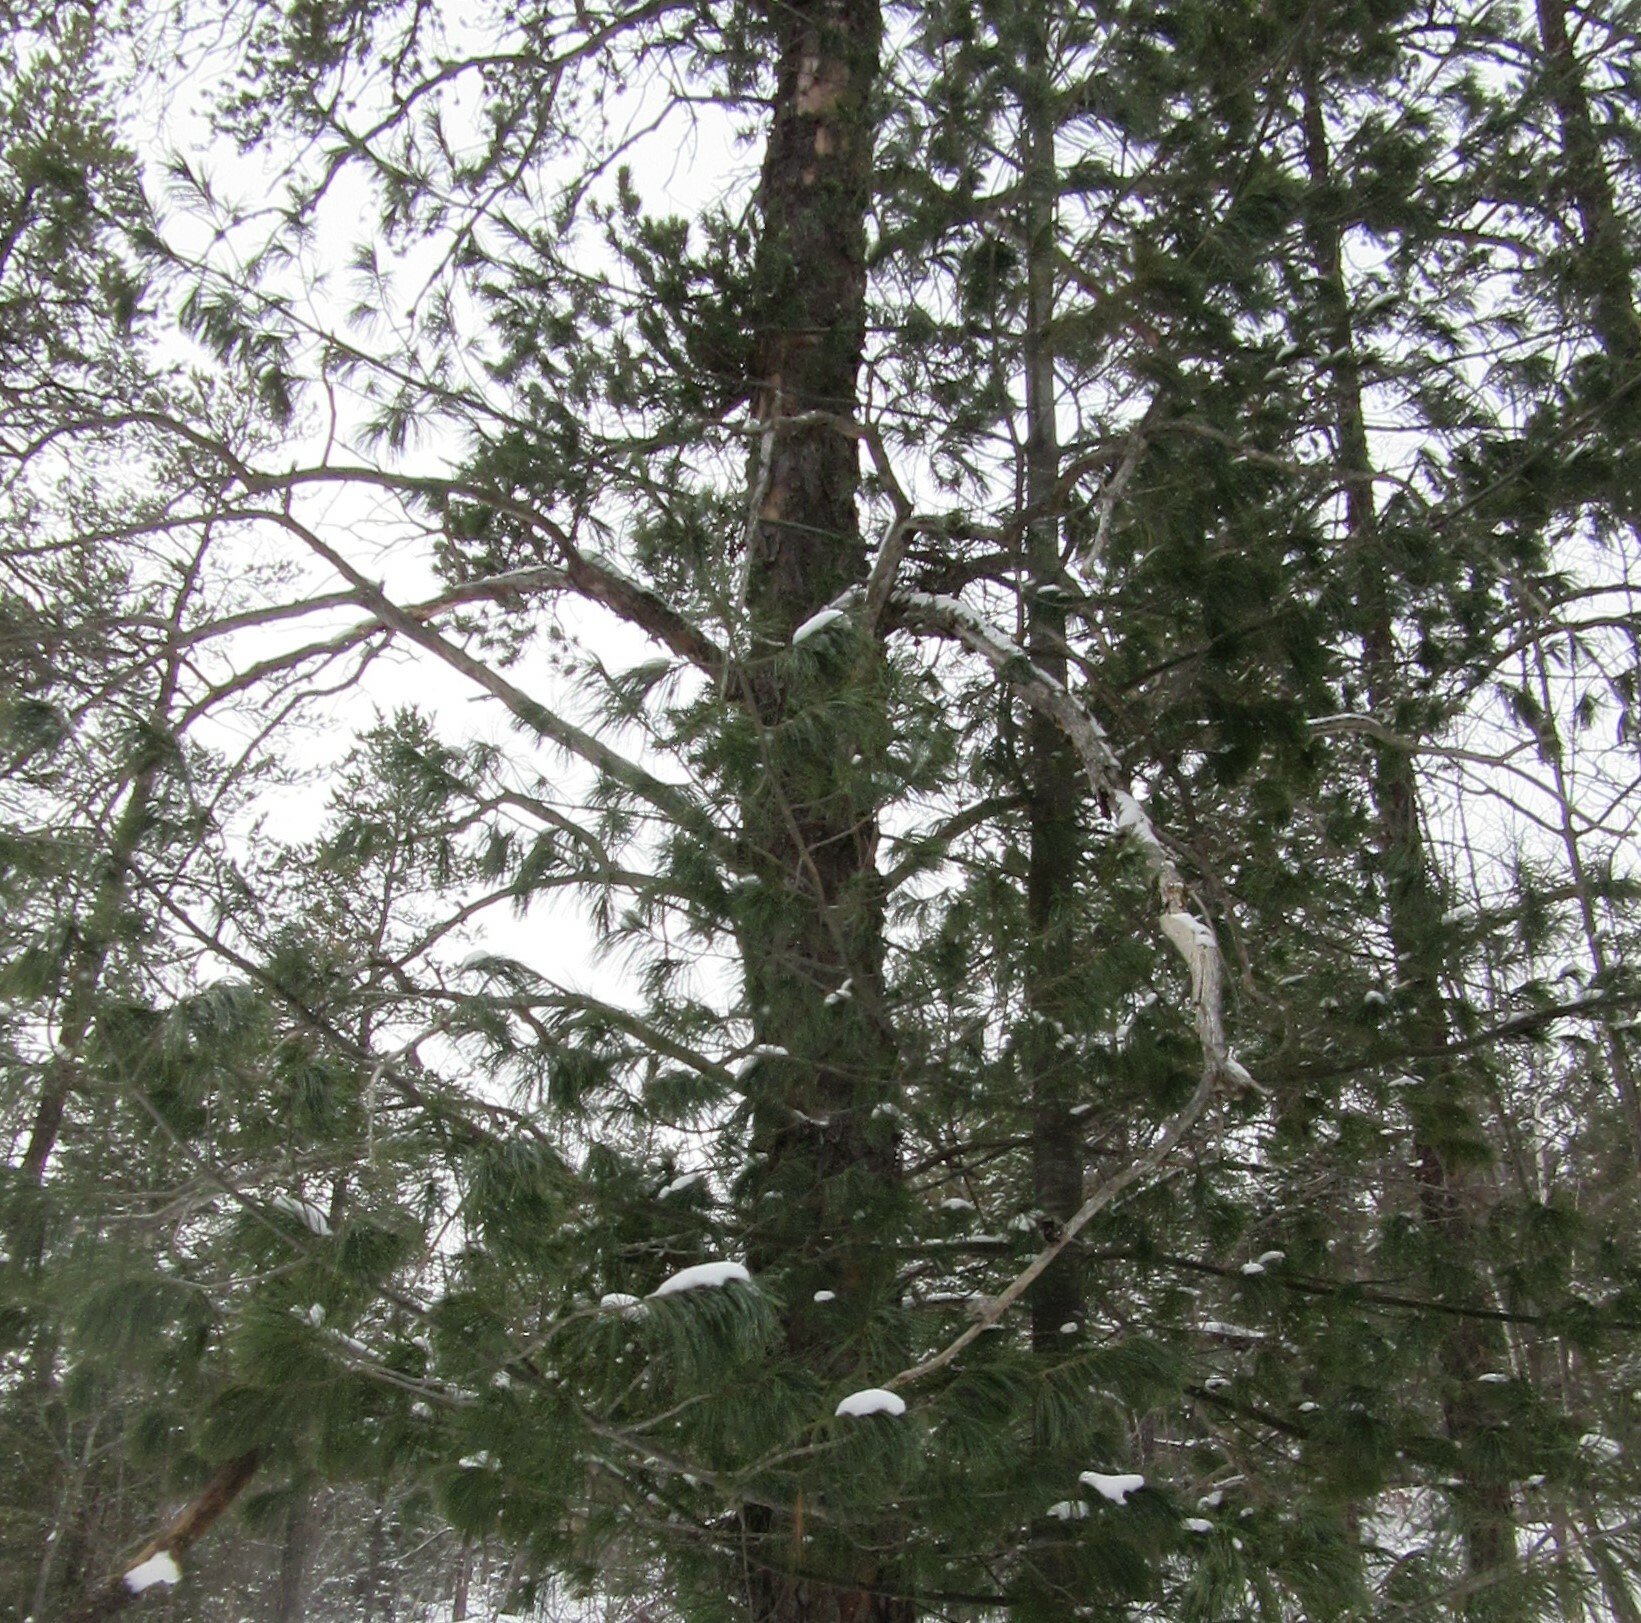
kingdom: Plantae
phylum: Tracheophyta
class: Pinopsida
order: Pinales
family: Pinaceae
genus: Pinus
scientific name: Pinus strobus
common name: Weymouth pine
